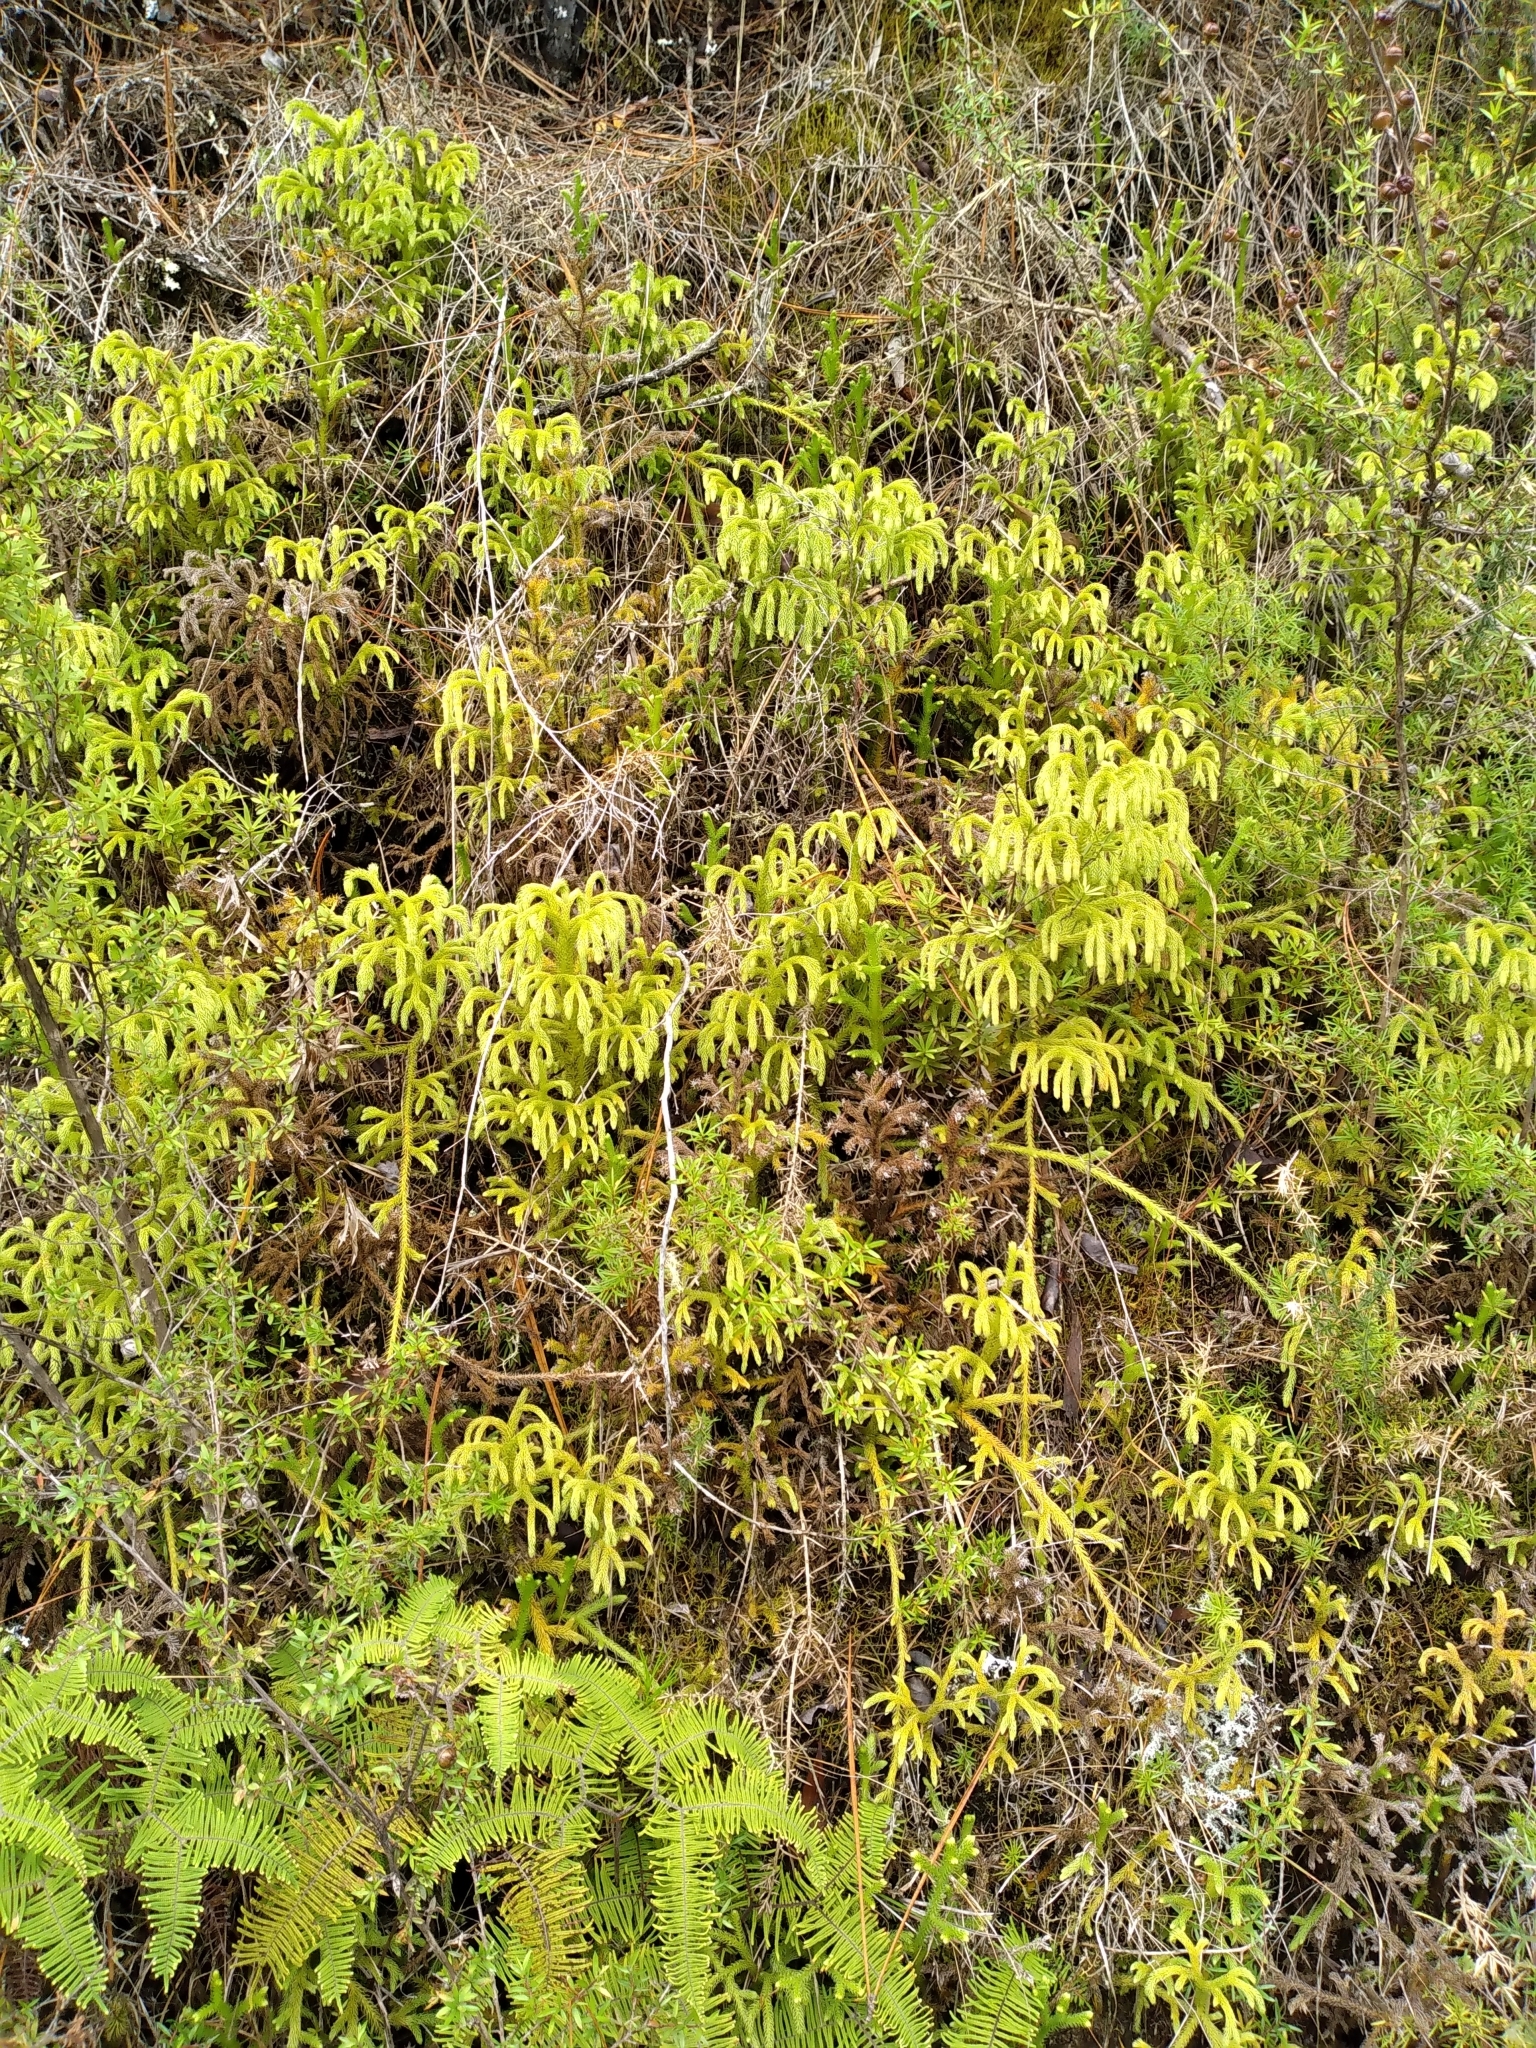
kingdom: Plantae
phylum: Tracheophyta
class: Lycopodiopsida
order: Lycopodiales
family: Lycopodiaceae
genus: Palhinhaea
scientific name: Palhinhaea cernua
